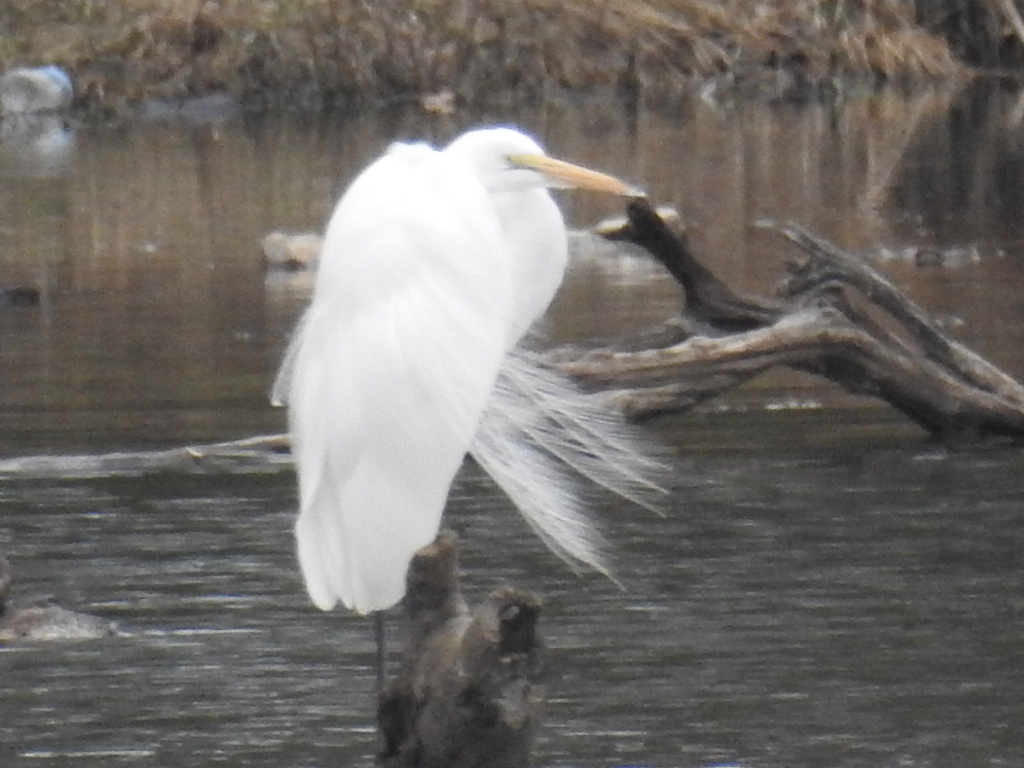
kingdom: Animalia
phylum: Chordata
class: Aves
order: Pelecaniformes
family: Ardeidae
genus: Ardea
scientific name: Ardea alba
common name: Great egret
